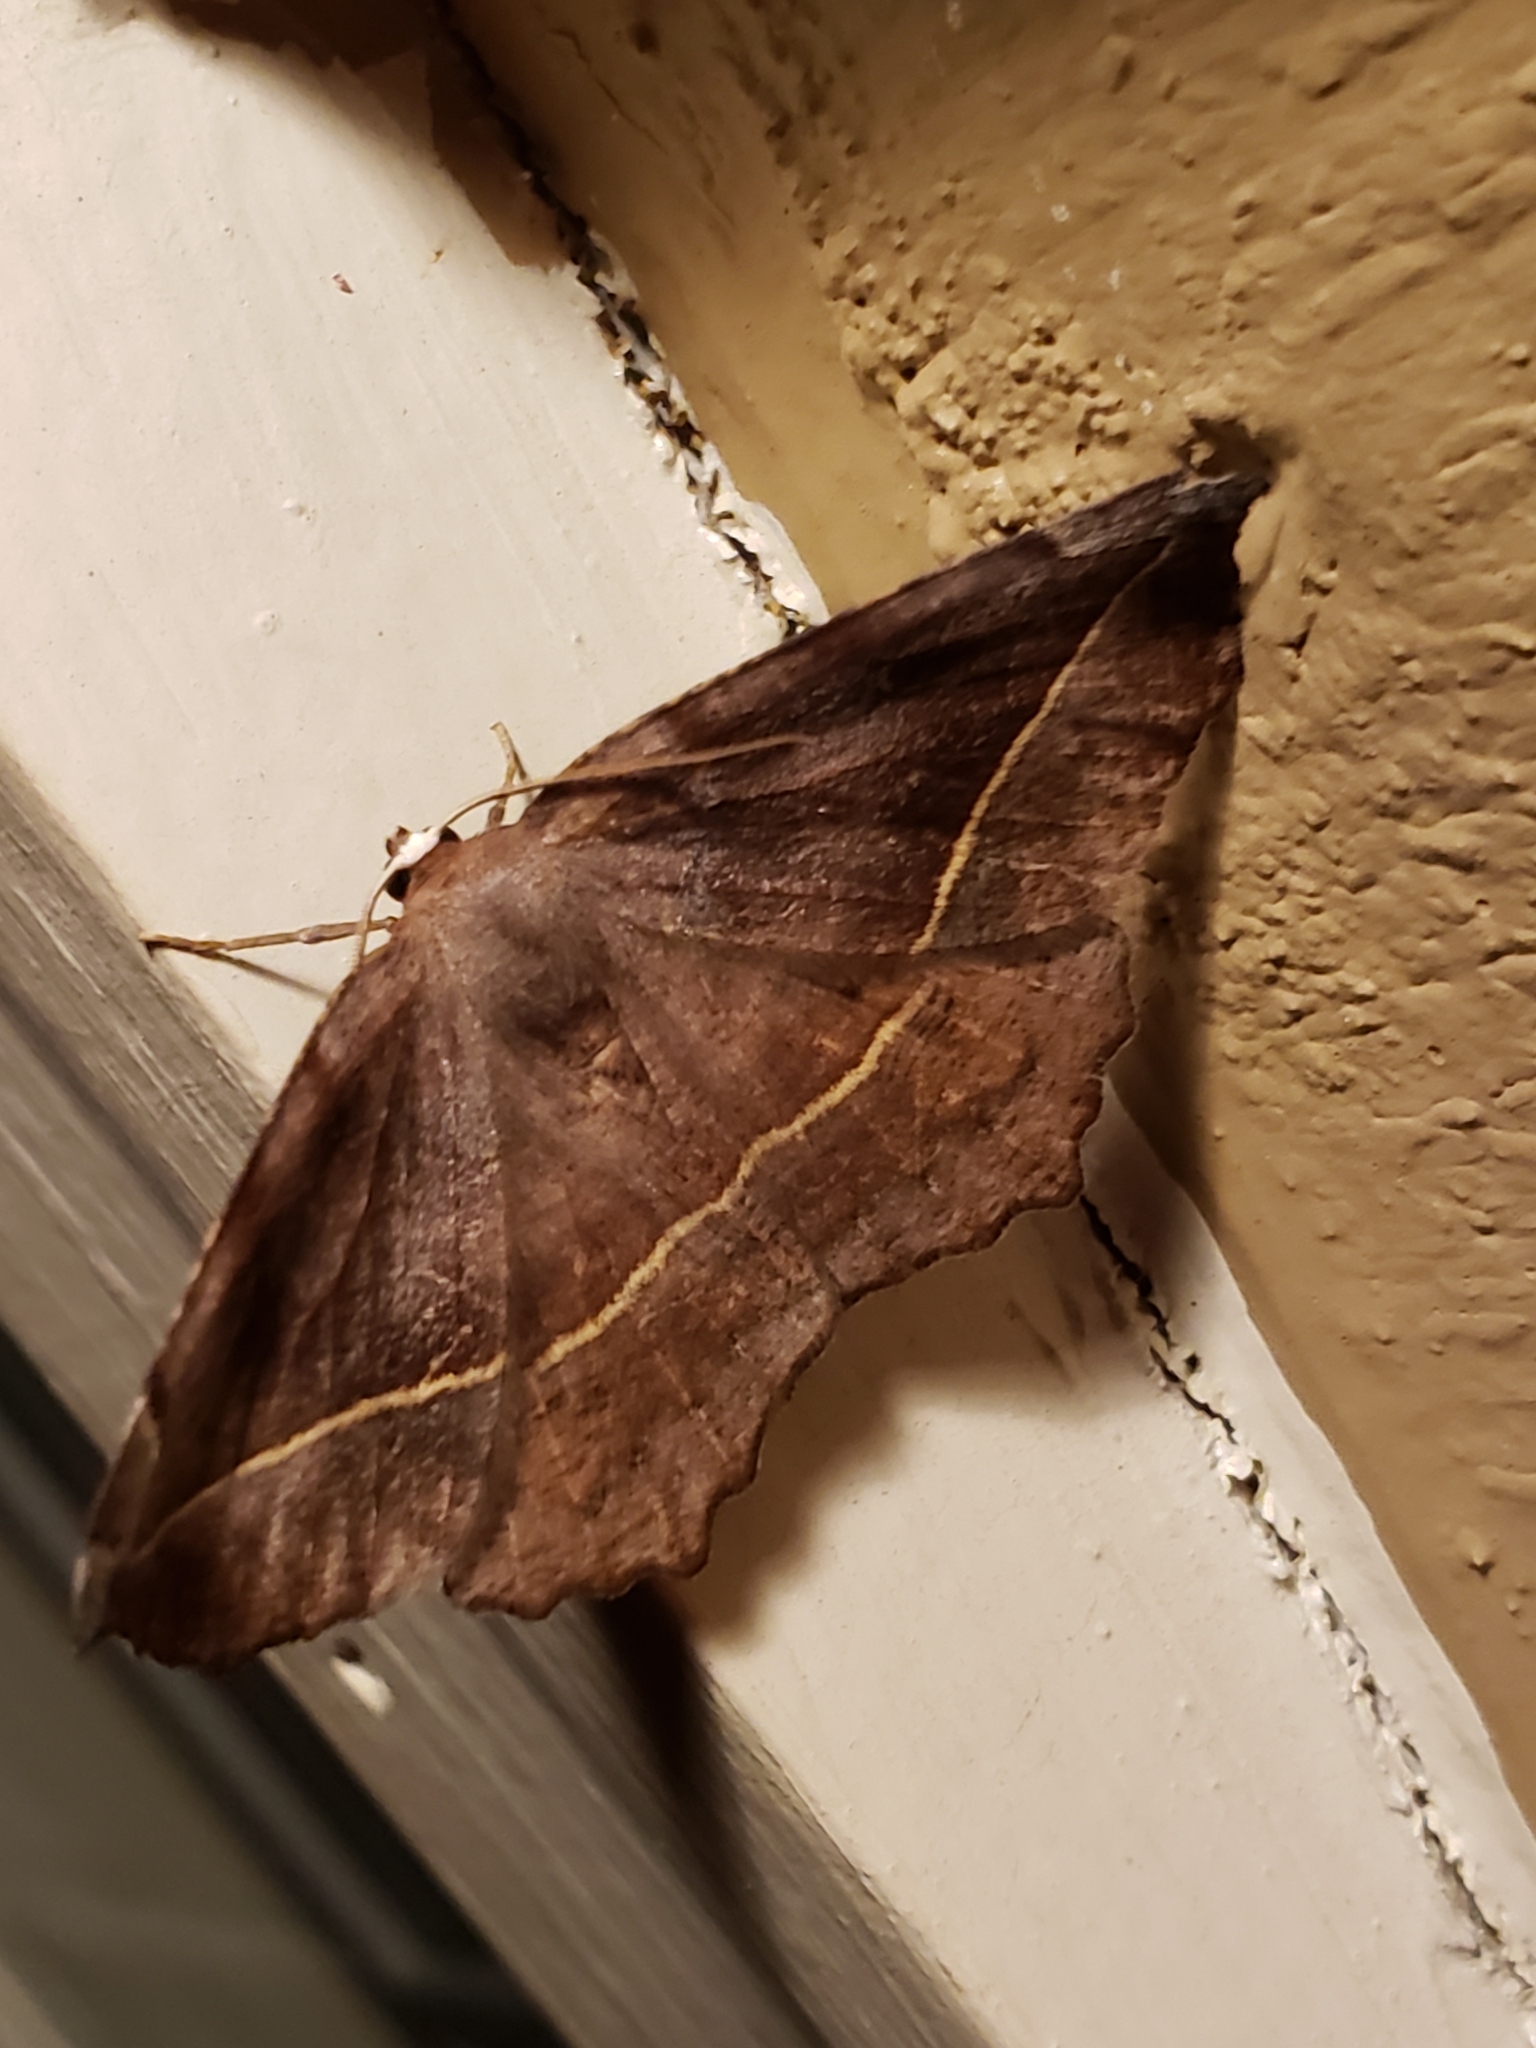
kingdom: Animalia
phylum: Arthropoda
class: Insecta
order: Lepidoptera
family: Geometridae
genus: Eutrapela
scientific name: Eutrapela clemataria
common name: Curved-toothed geometer
